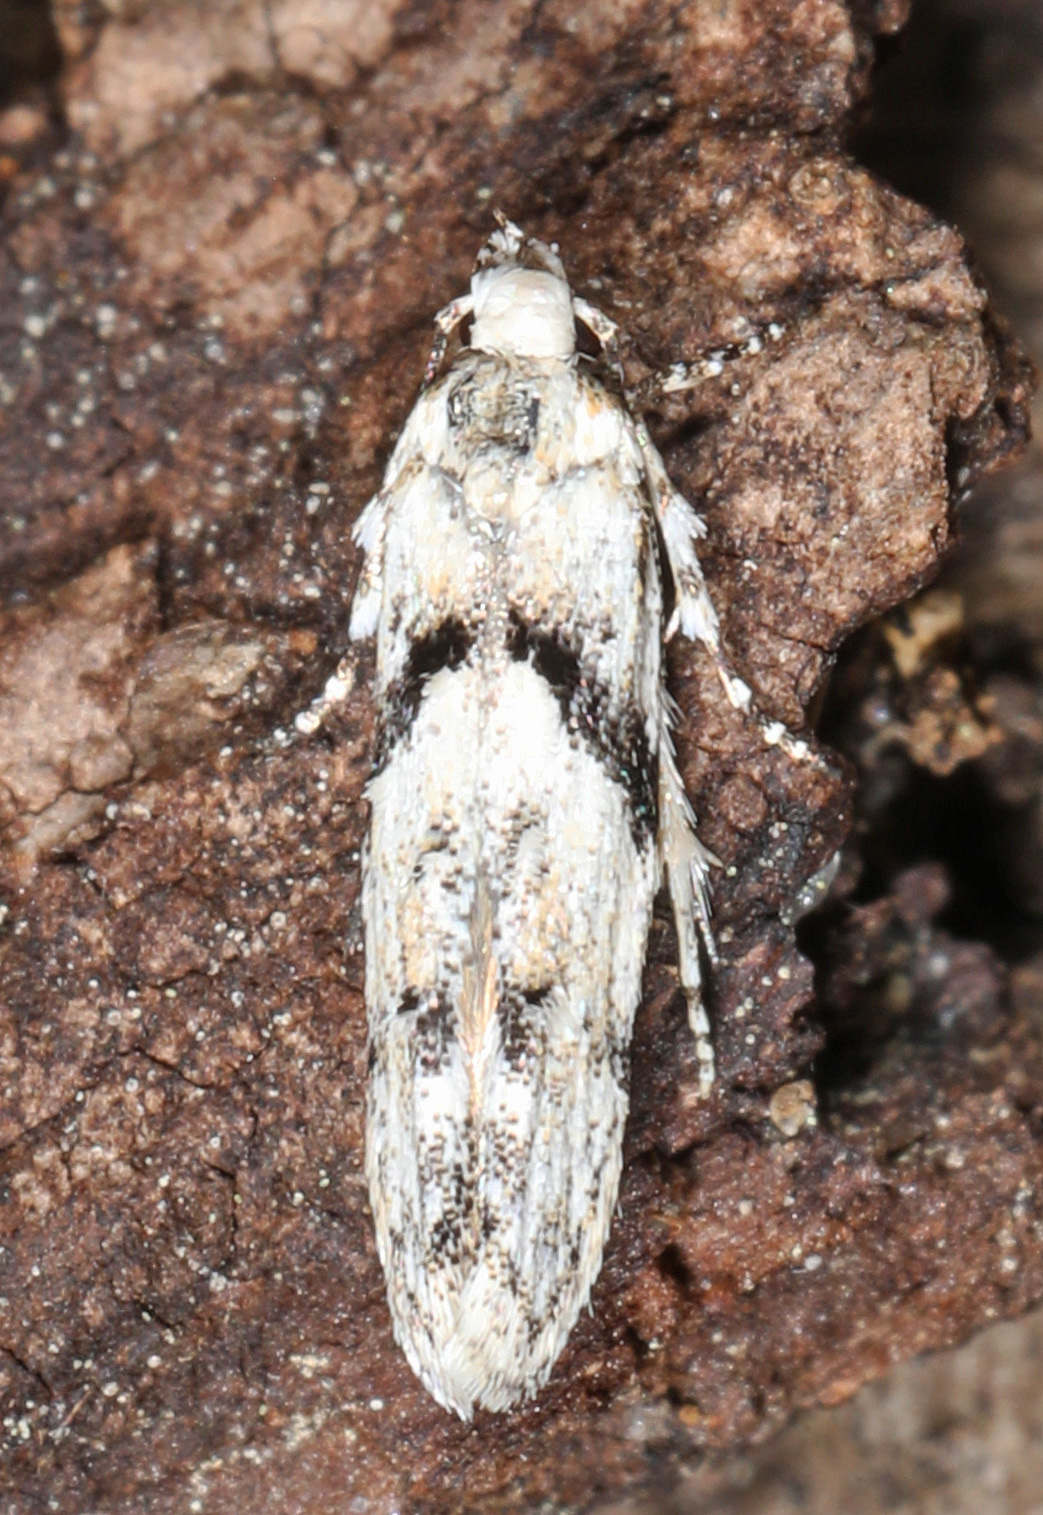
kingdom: Animalia
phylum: Arthropoda
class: Insecta
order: Lepidoptera
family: Gelechiidae
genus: Arogalea
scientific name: Arogalea cristifasciella
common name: White stripe-backed moth
